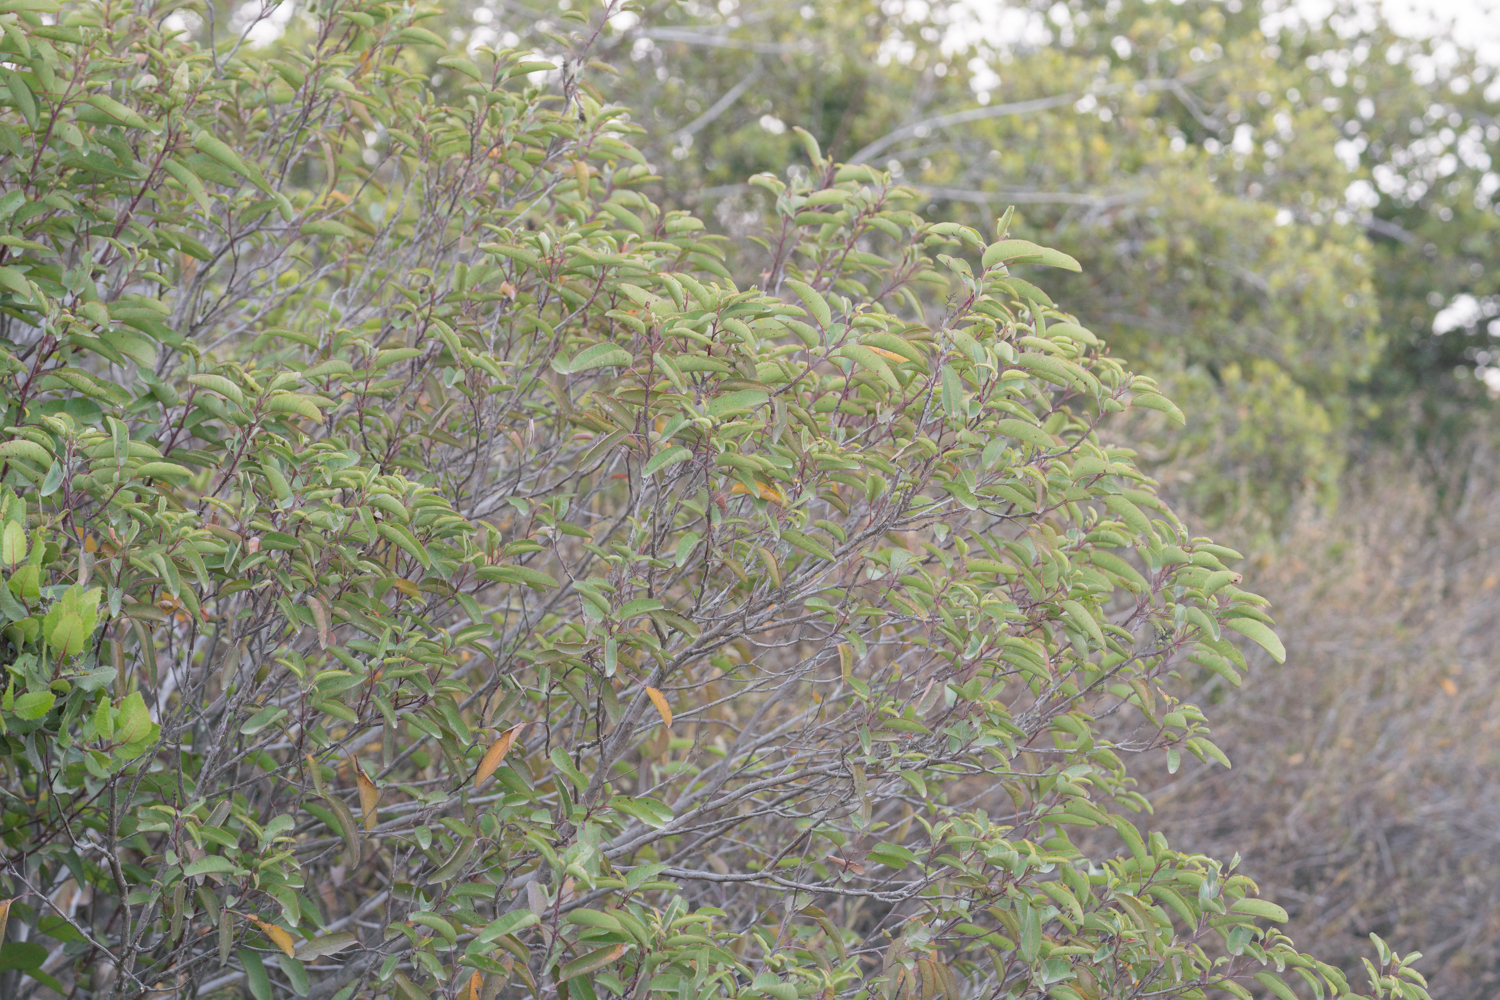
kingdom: Plantae
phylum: Tracheophyta
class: Magnoliopsida
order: Sapindales
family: Anacardiaceae
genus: Malosma
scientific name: Malosma laurina
